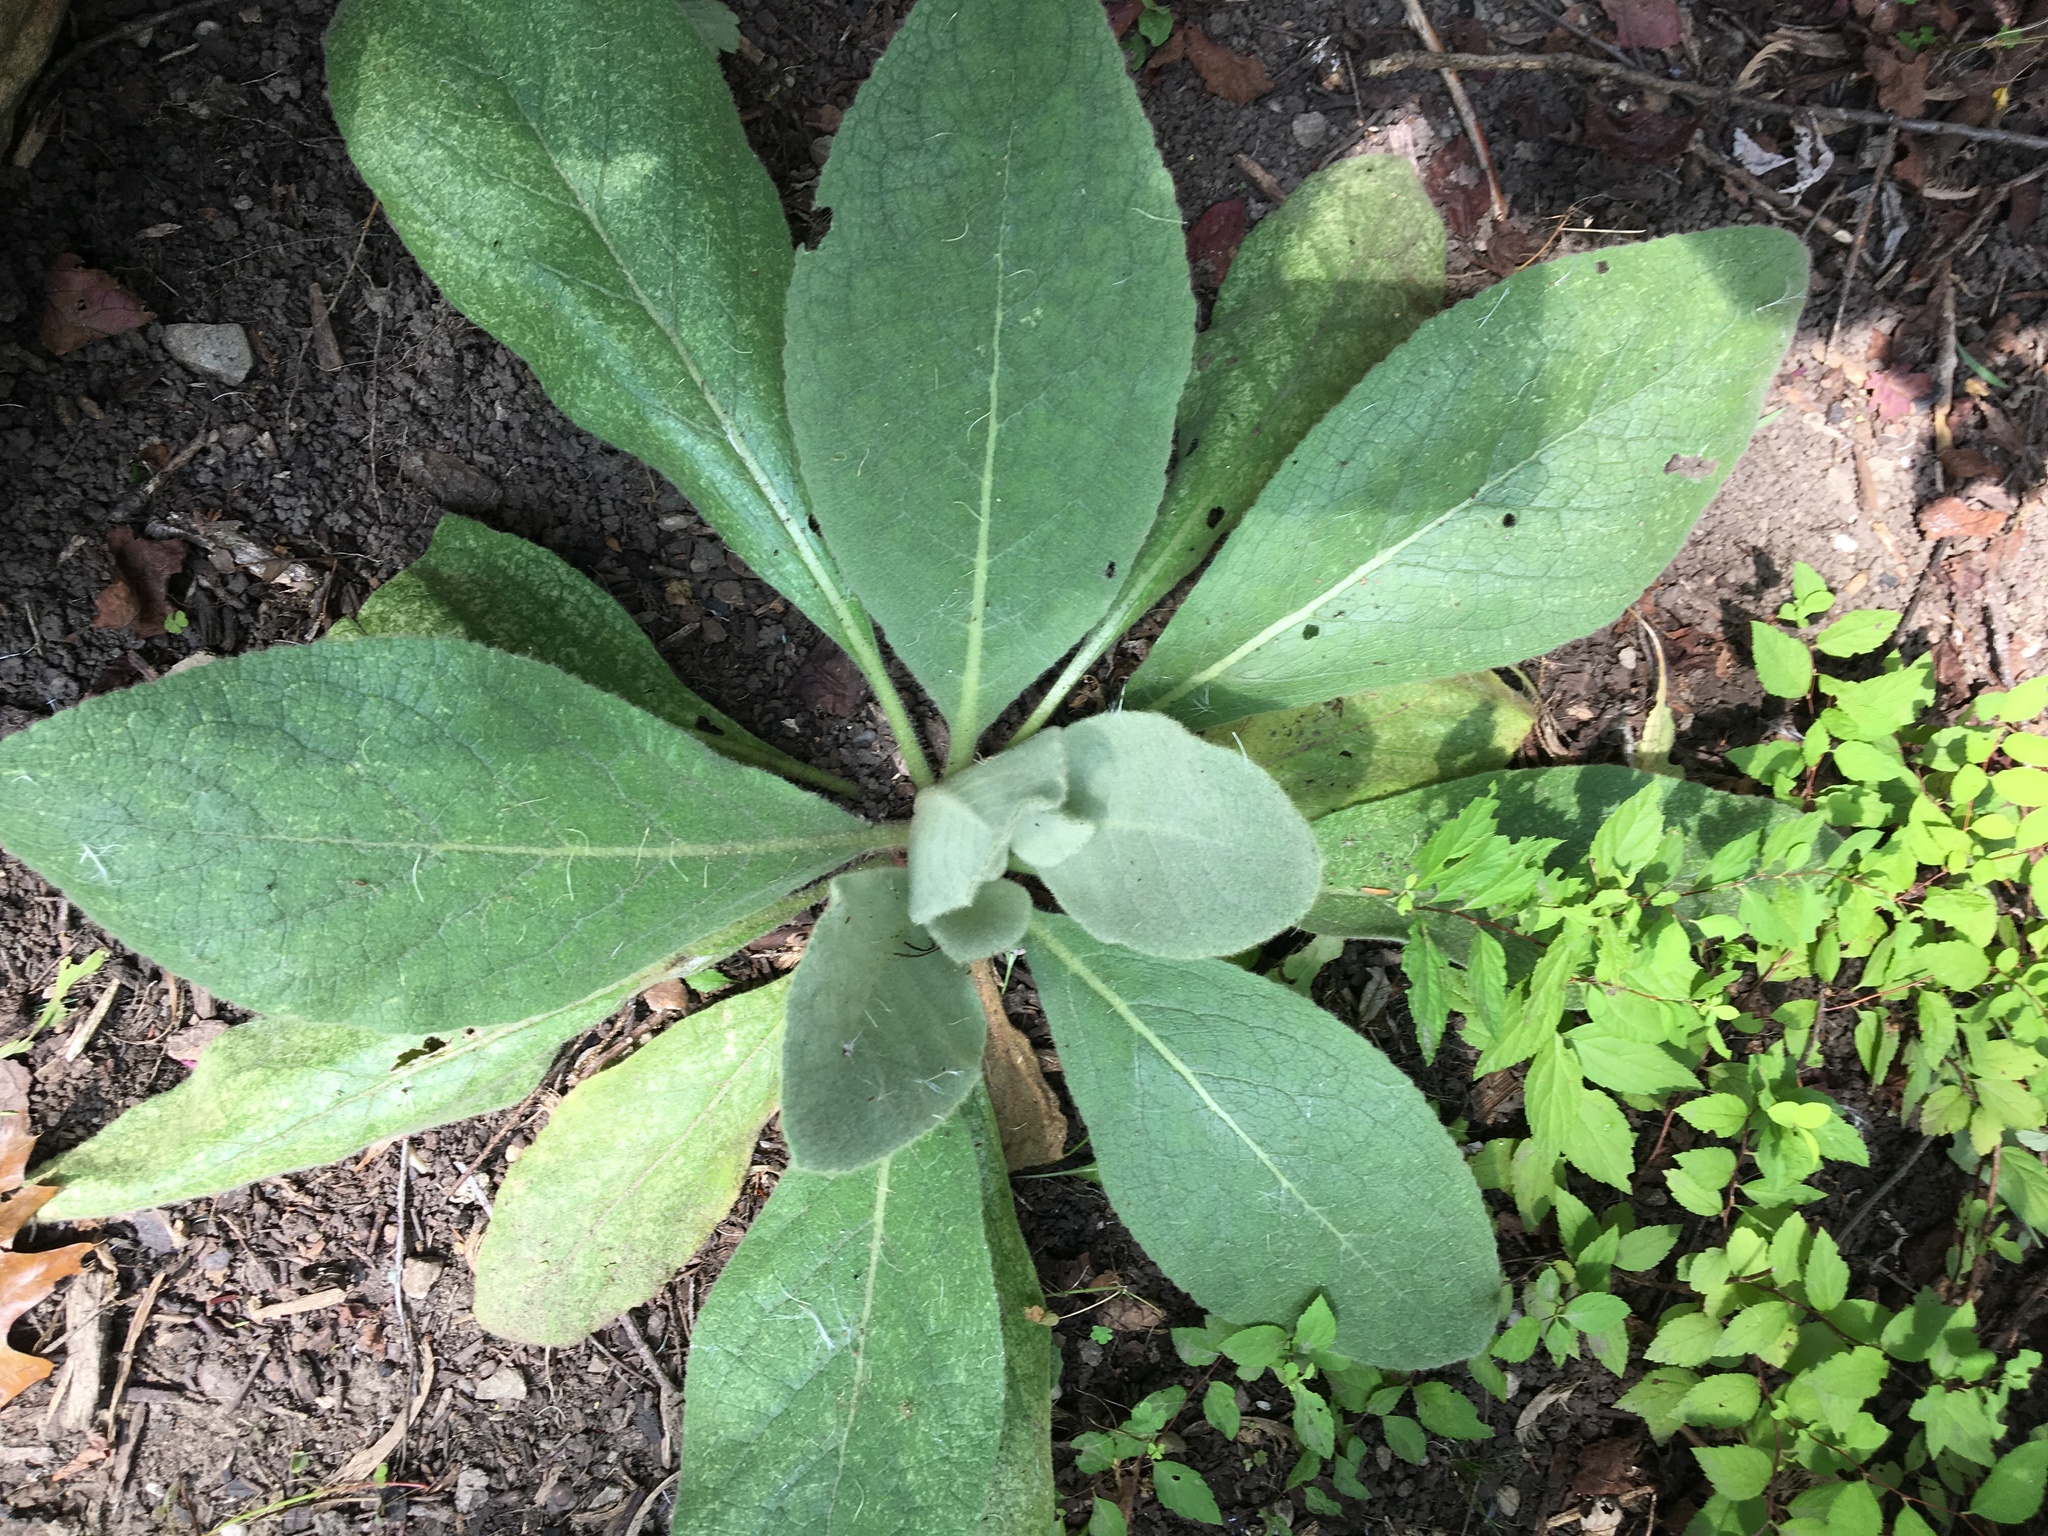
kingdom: Plantae
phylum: Tracheophyta
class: Magnoliopsida
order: Lamiales
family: Scrophulariaceae
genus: Verbascum
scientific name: Verbascum thapsus
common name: Common mullein
